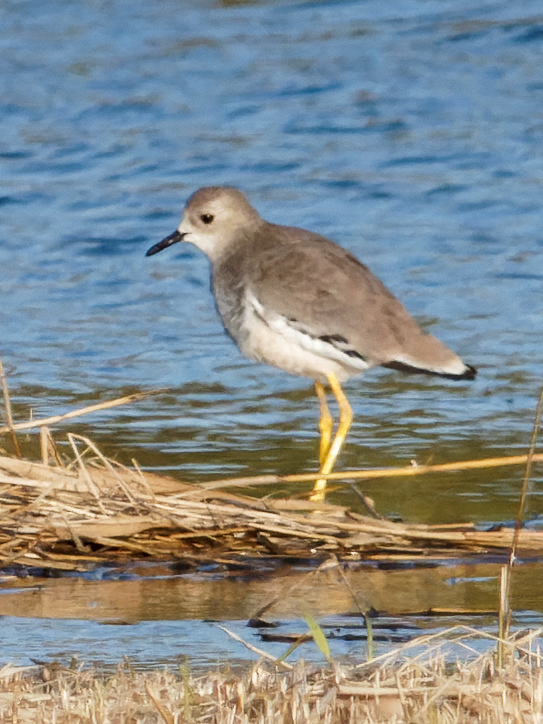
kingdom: Animalia
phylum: Chordata
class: Aves
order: Charadriiformes
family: Charadriidae
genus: Vanellus
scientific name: Vanellus leucurus
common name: White-tailed lapwing
